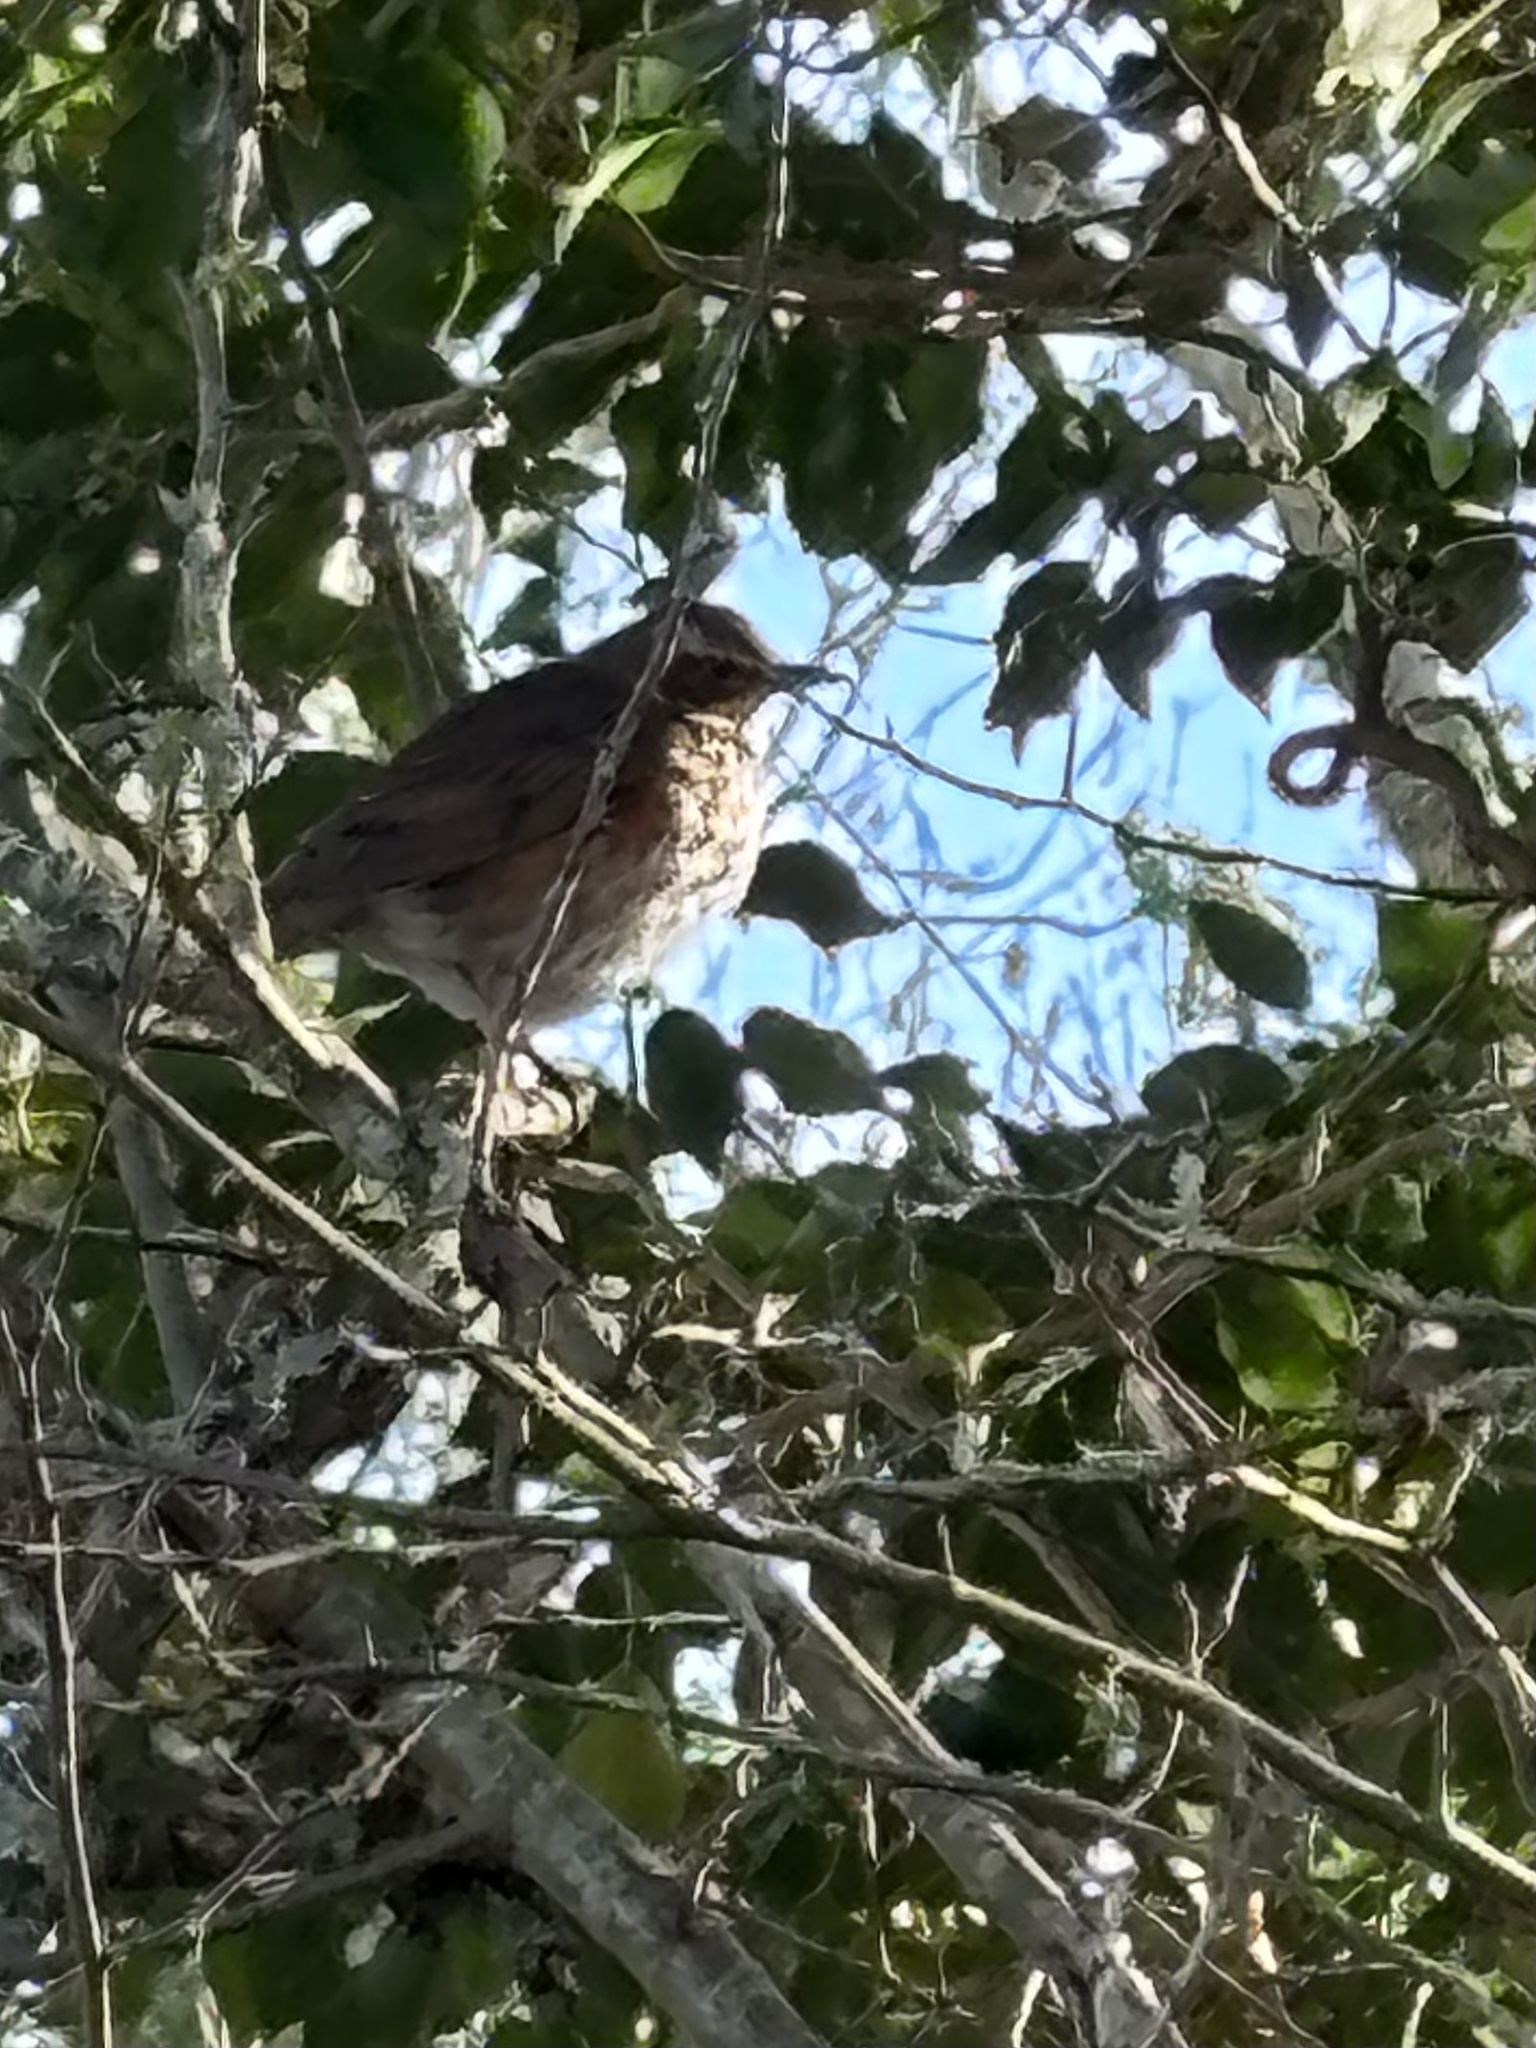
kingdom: Animalia
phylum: Chordata
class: Aves
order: Passeriformes
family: Turdidae
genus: Turdus
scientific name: Turdus iliacus
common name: Redwing
